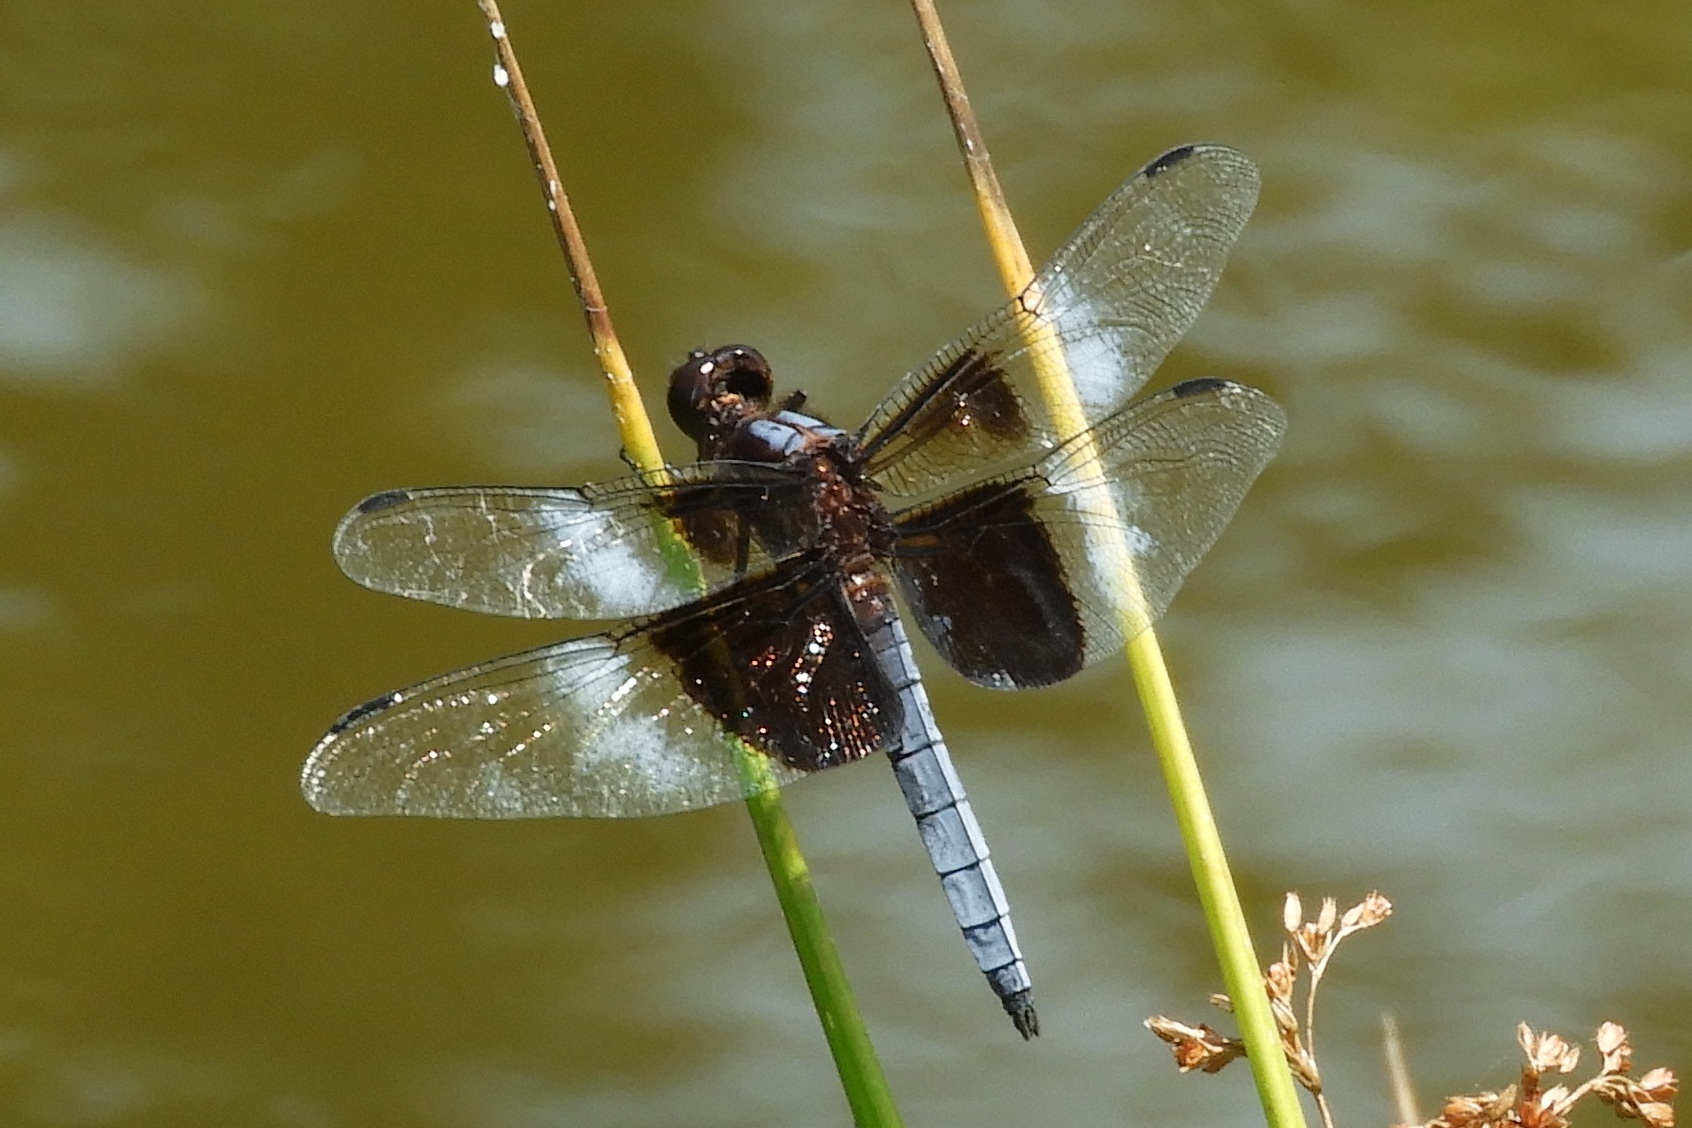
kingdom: Animalia
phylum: Arthropoda
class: Insecta
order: Odonata
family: Libellulidae
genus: Libellula
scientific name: Libellula luctuosa
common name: Widow skimmer
